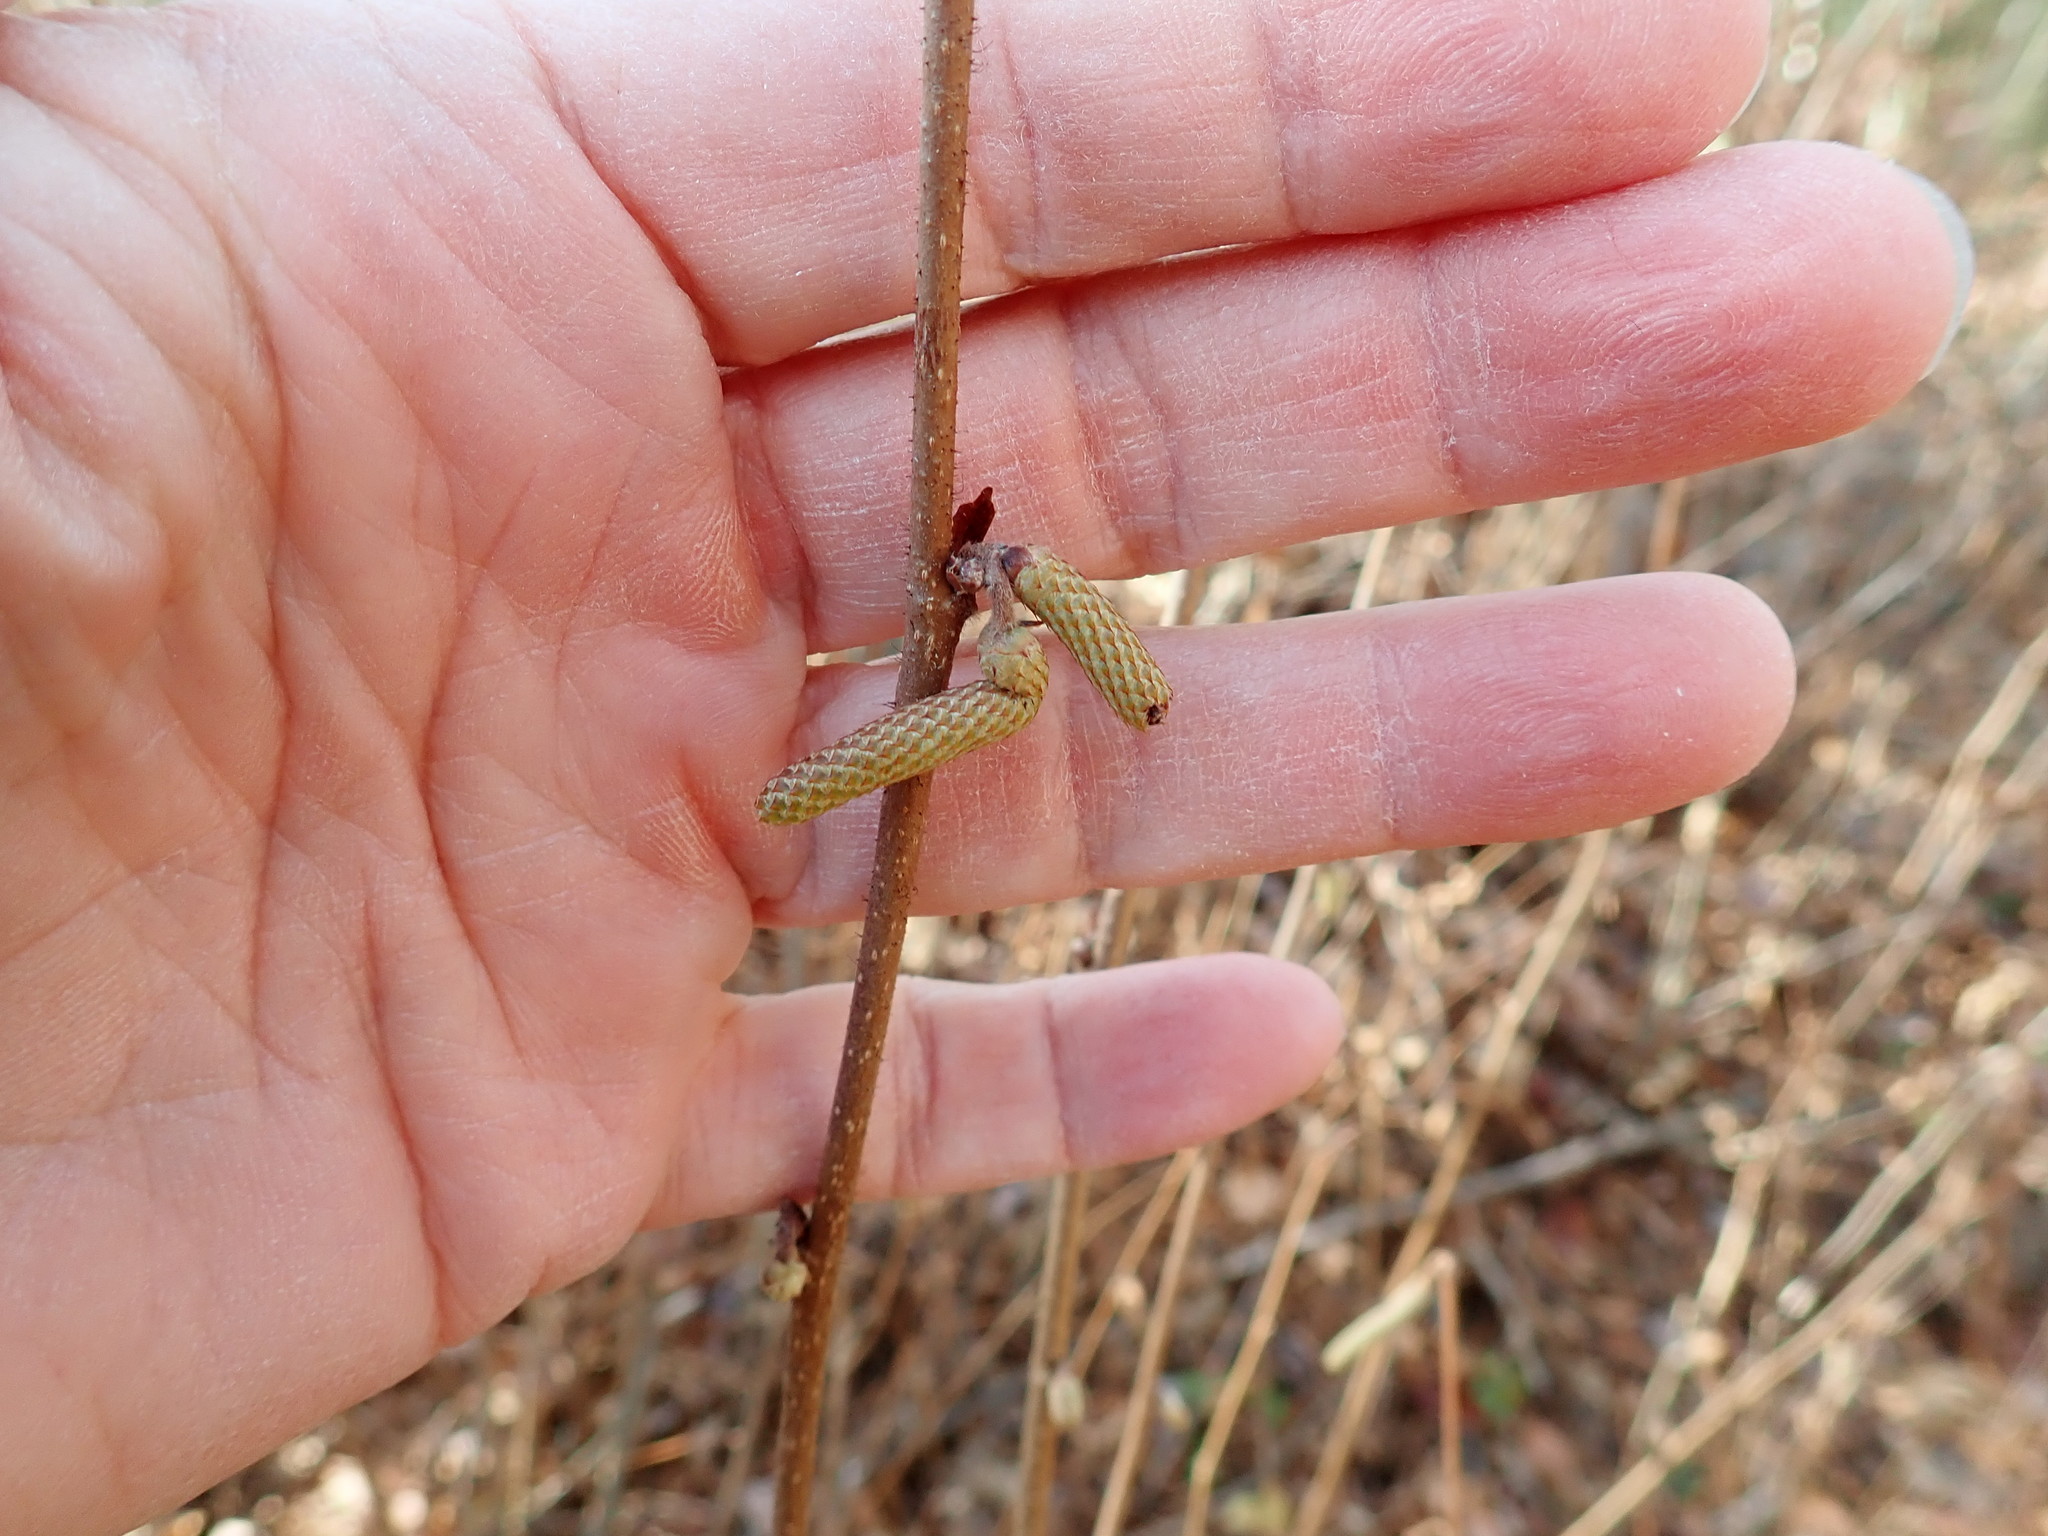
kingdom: Plantae
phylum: Tracheophyta
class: Magnoliopsida
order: Fagales
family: Betulaceae
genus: Corylus
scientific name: Corylus cornuta
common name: Beaked hazel
